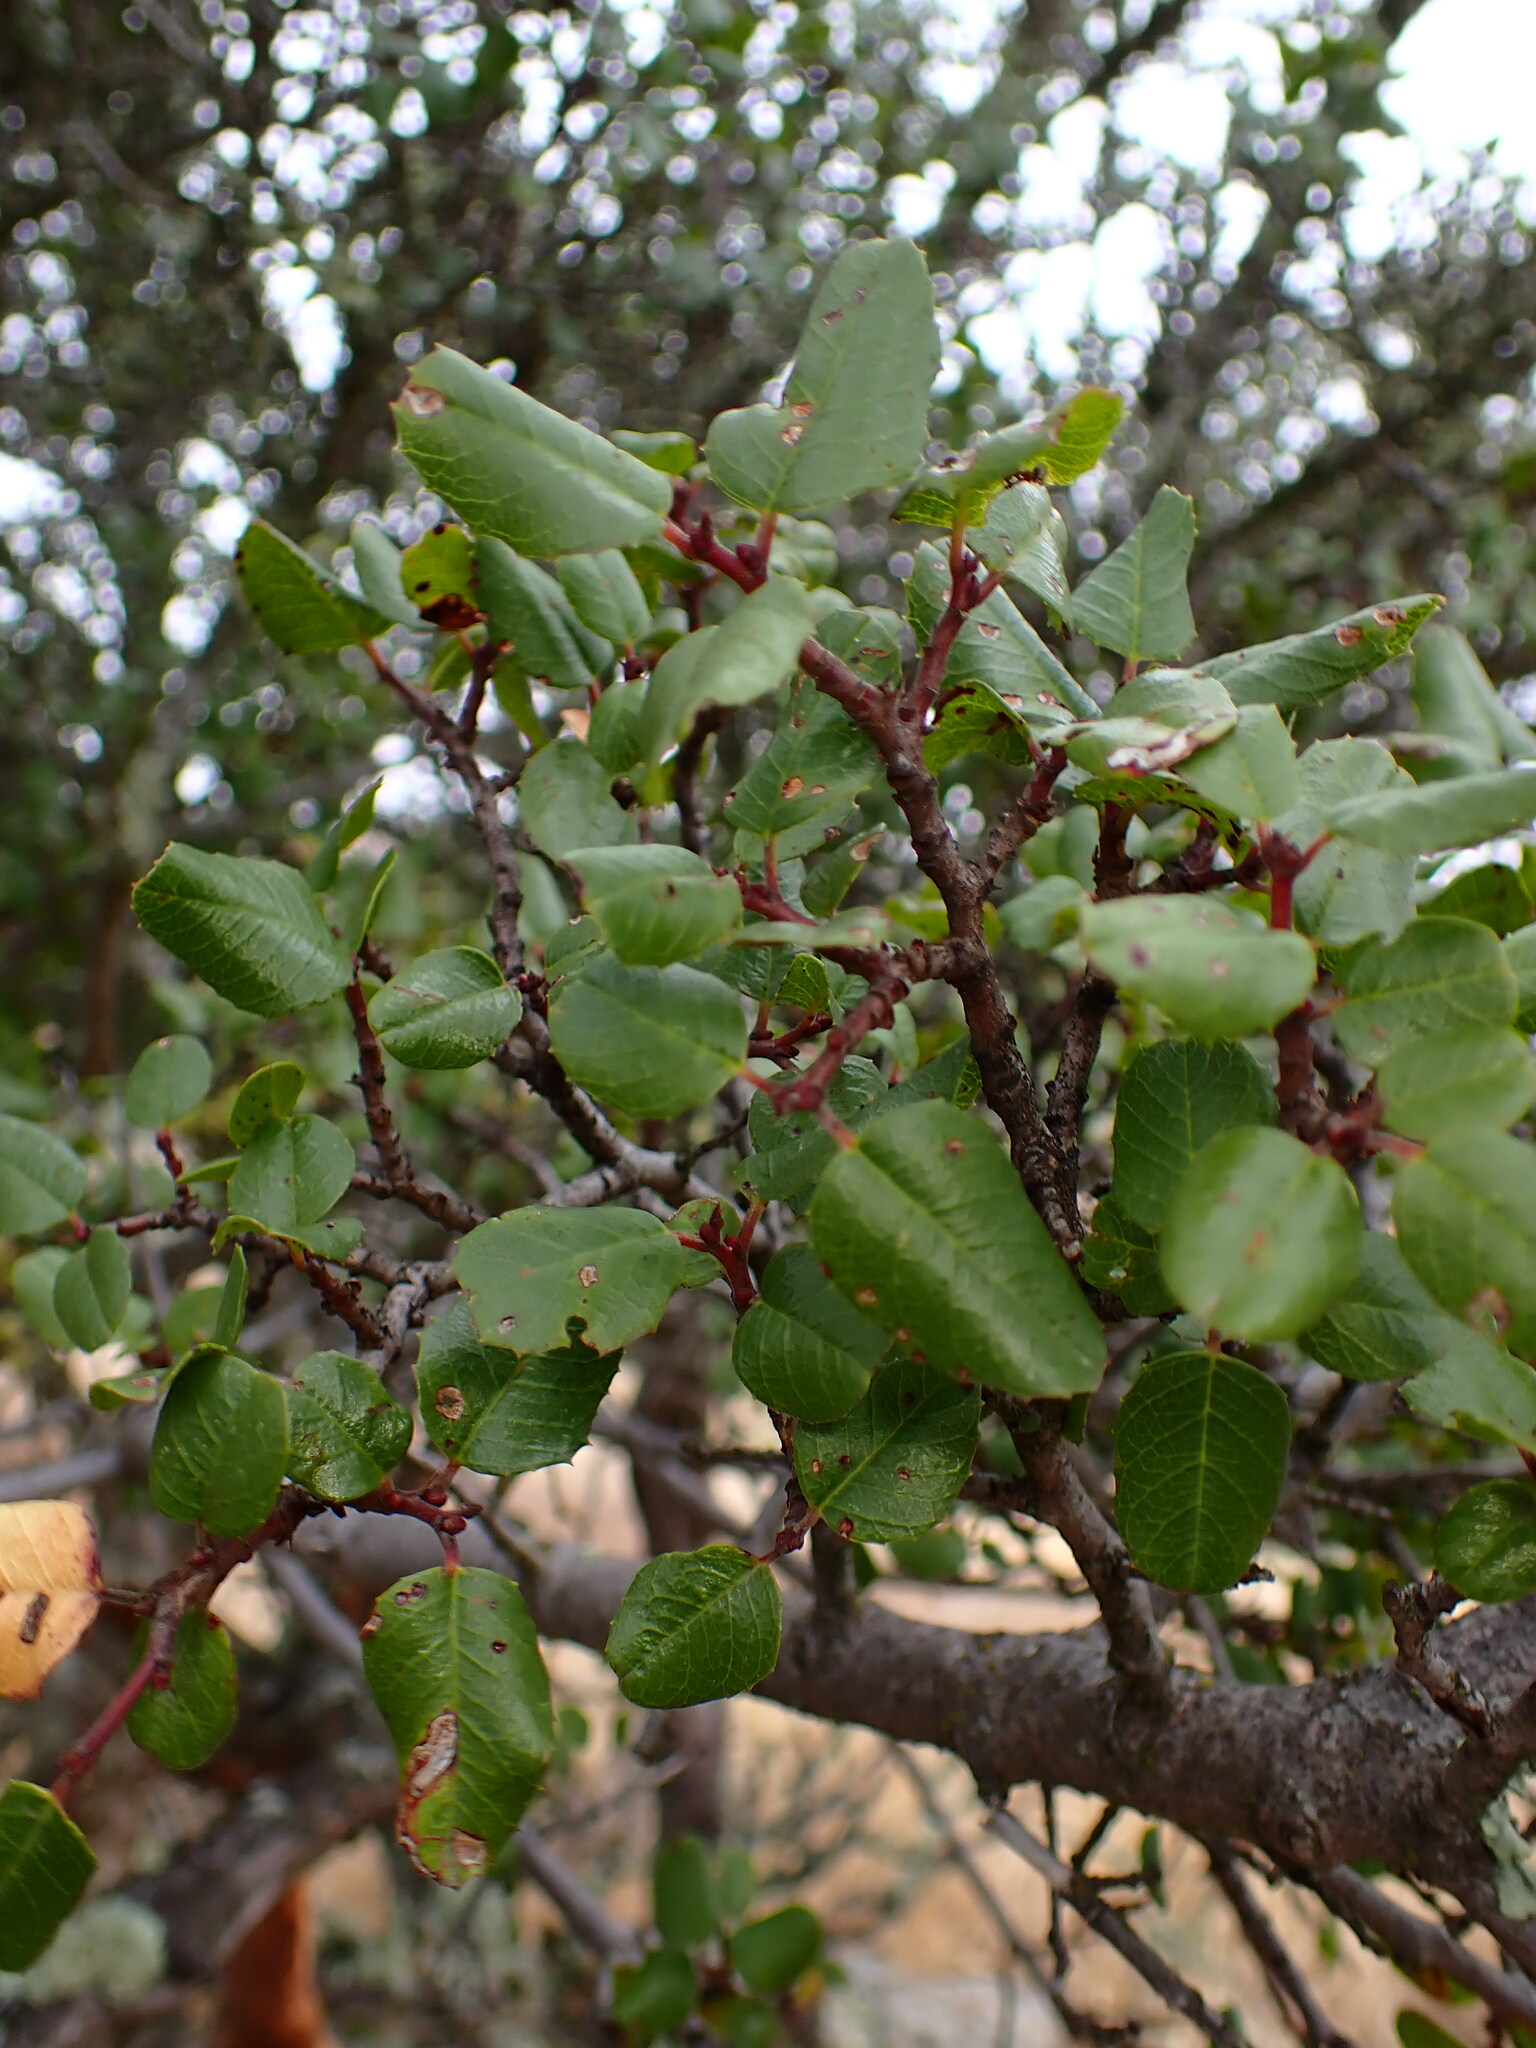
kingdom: Plantae
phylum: Tracheophyta
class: Magnoliopsida
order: Rosales
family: Rhamnaceae
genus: Endotropis
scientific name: Endotropis crocea
